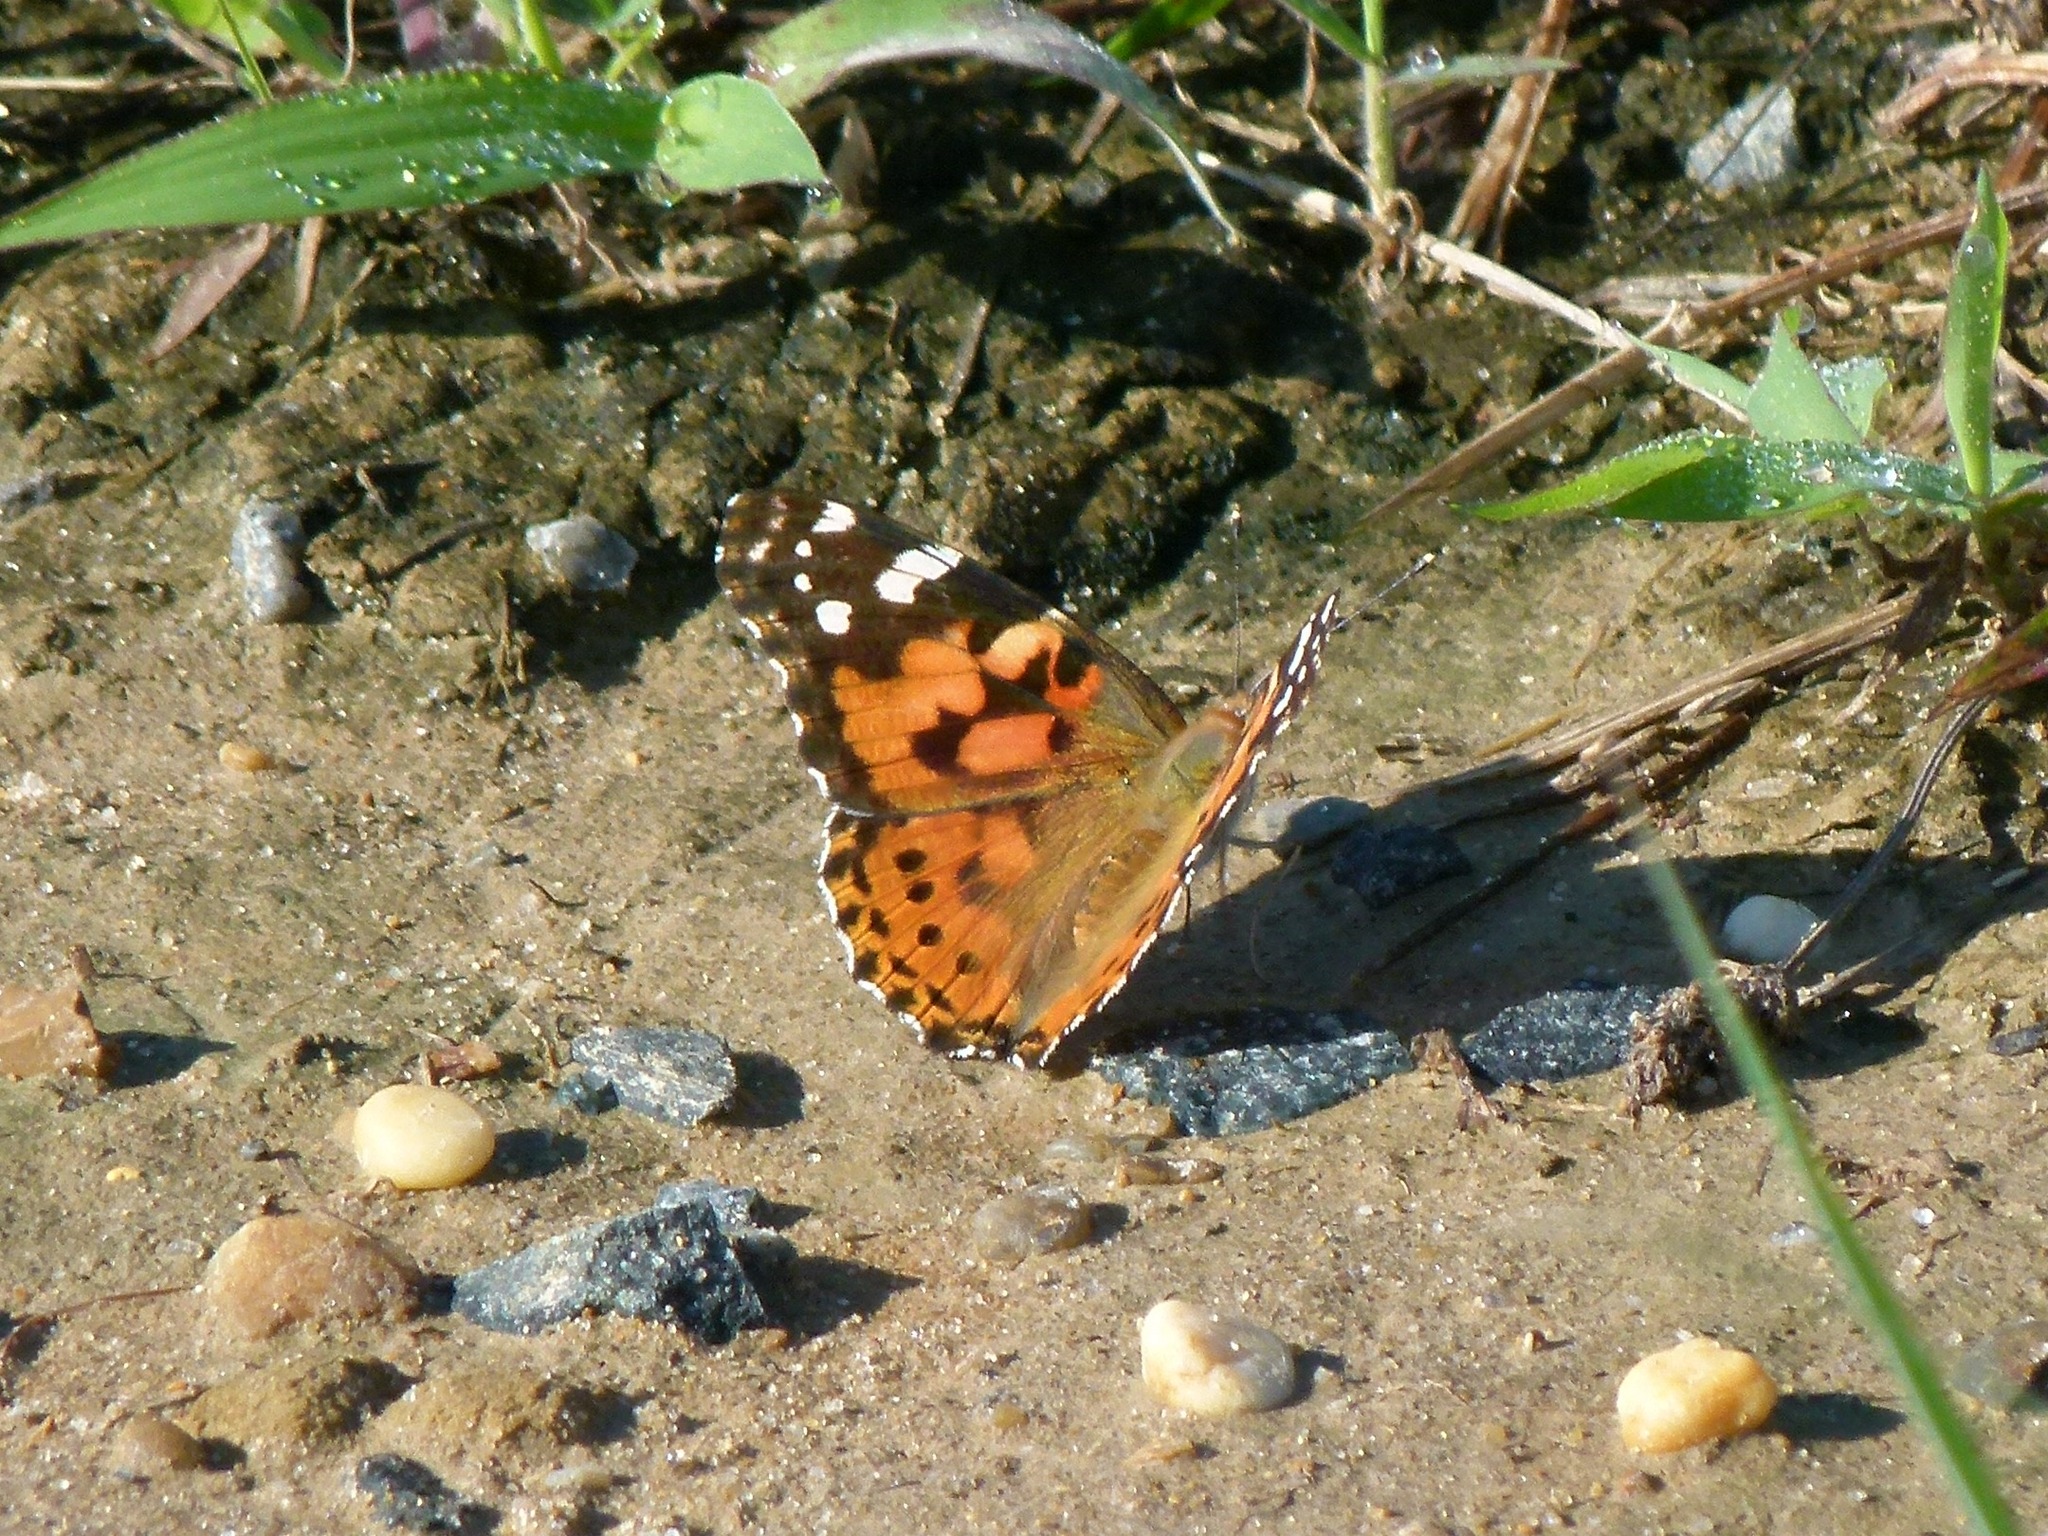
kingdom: Animalia
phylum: Arthropoda
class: Insecta
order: Lepidoptera
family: Nymphalidae
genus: Vanessa
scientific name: Vanessa cardui
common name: Painted lady
